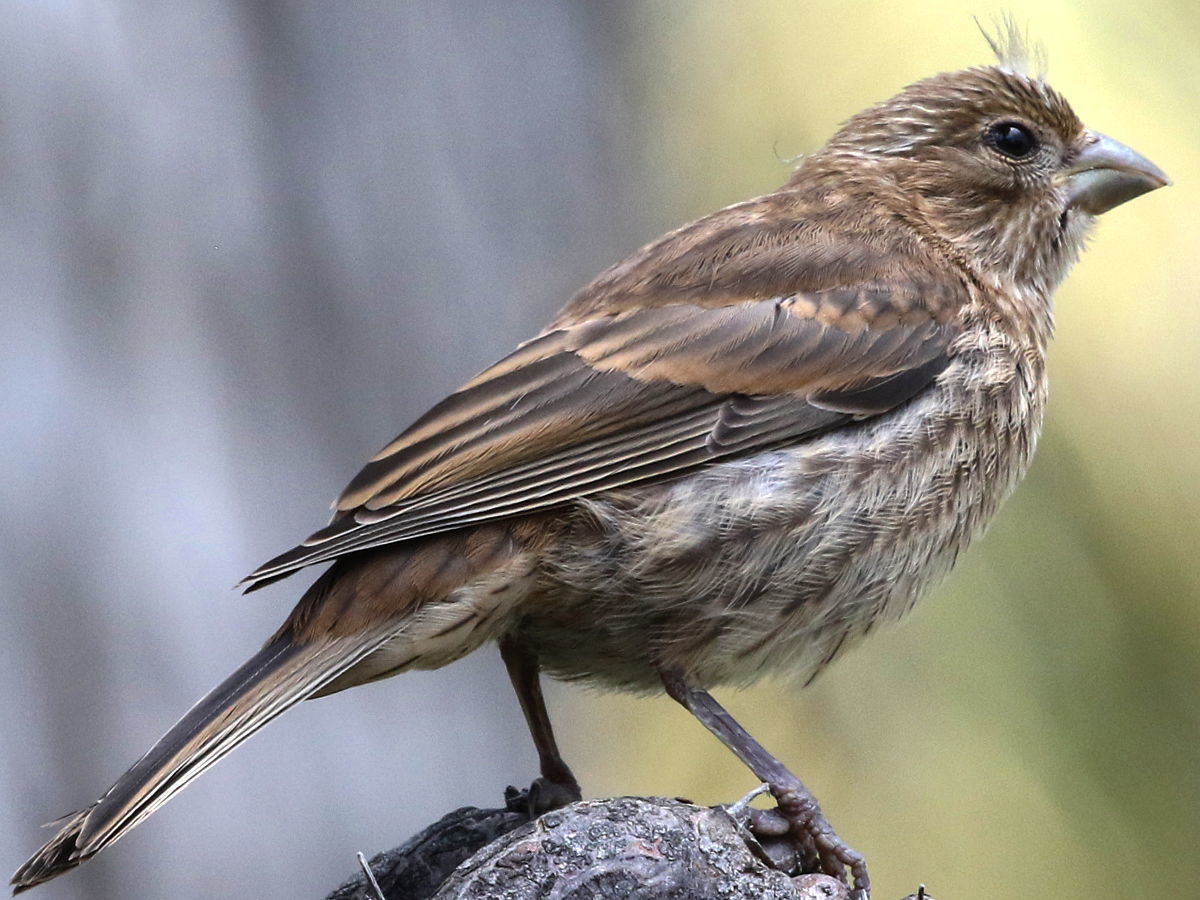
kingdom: Animalia
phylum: Chordata
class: Aves
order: Passeriformes
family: Fringillidae
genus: Haemorhous
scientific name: Haemorhous mexicanus
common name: House finch
